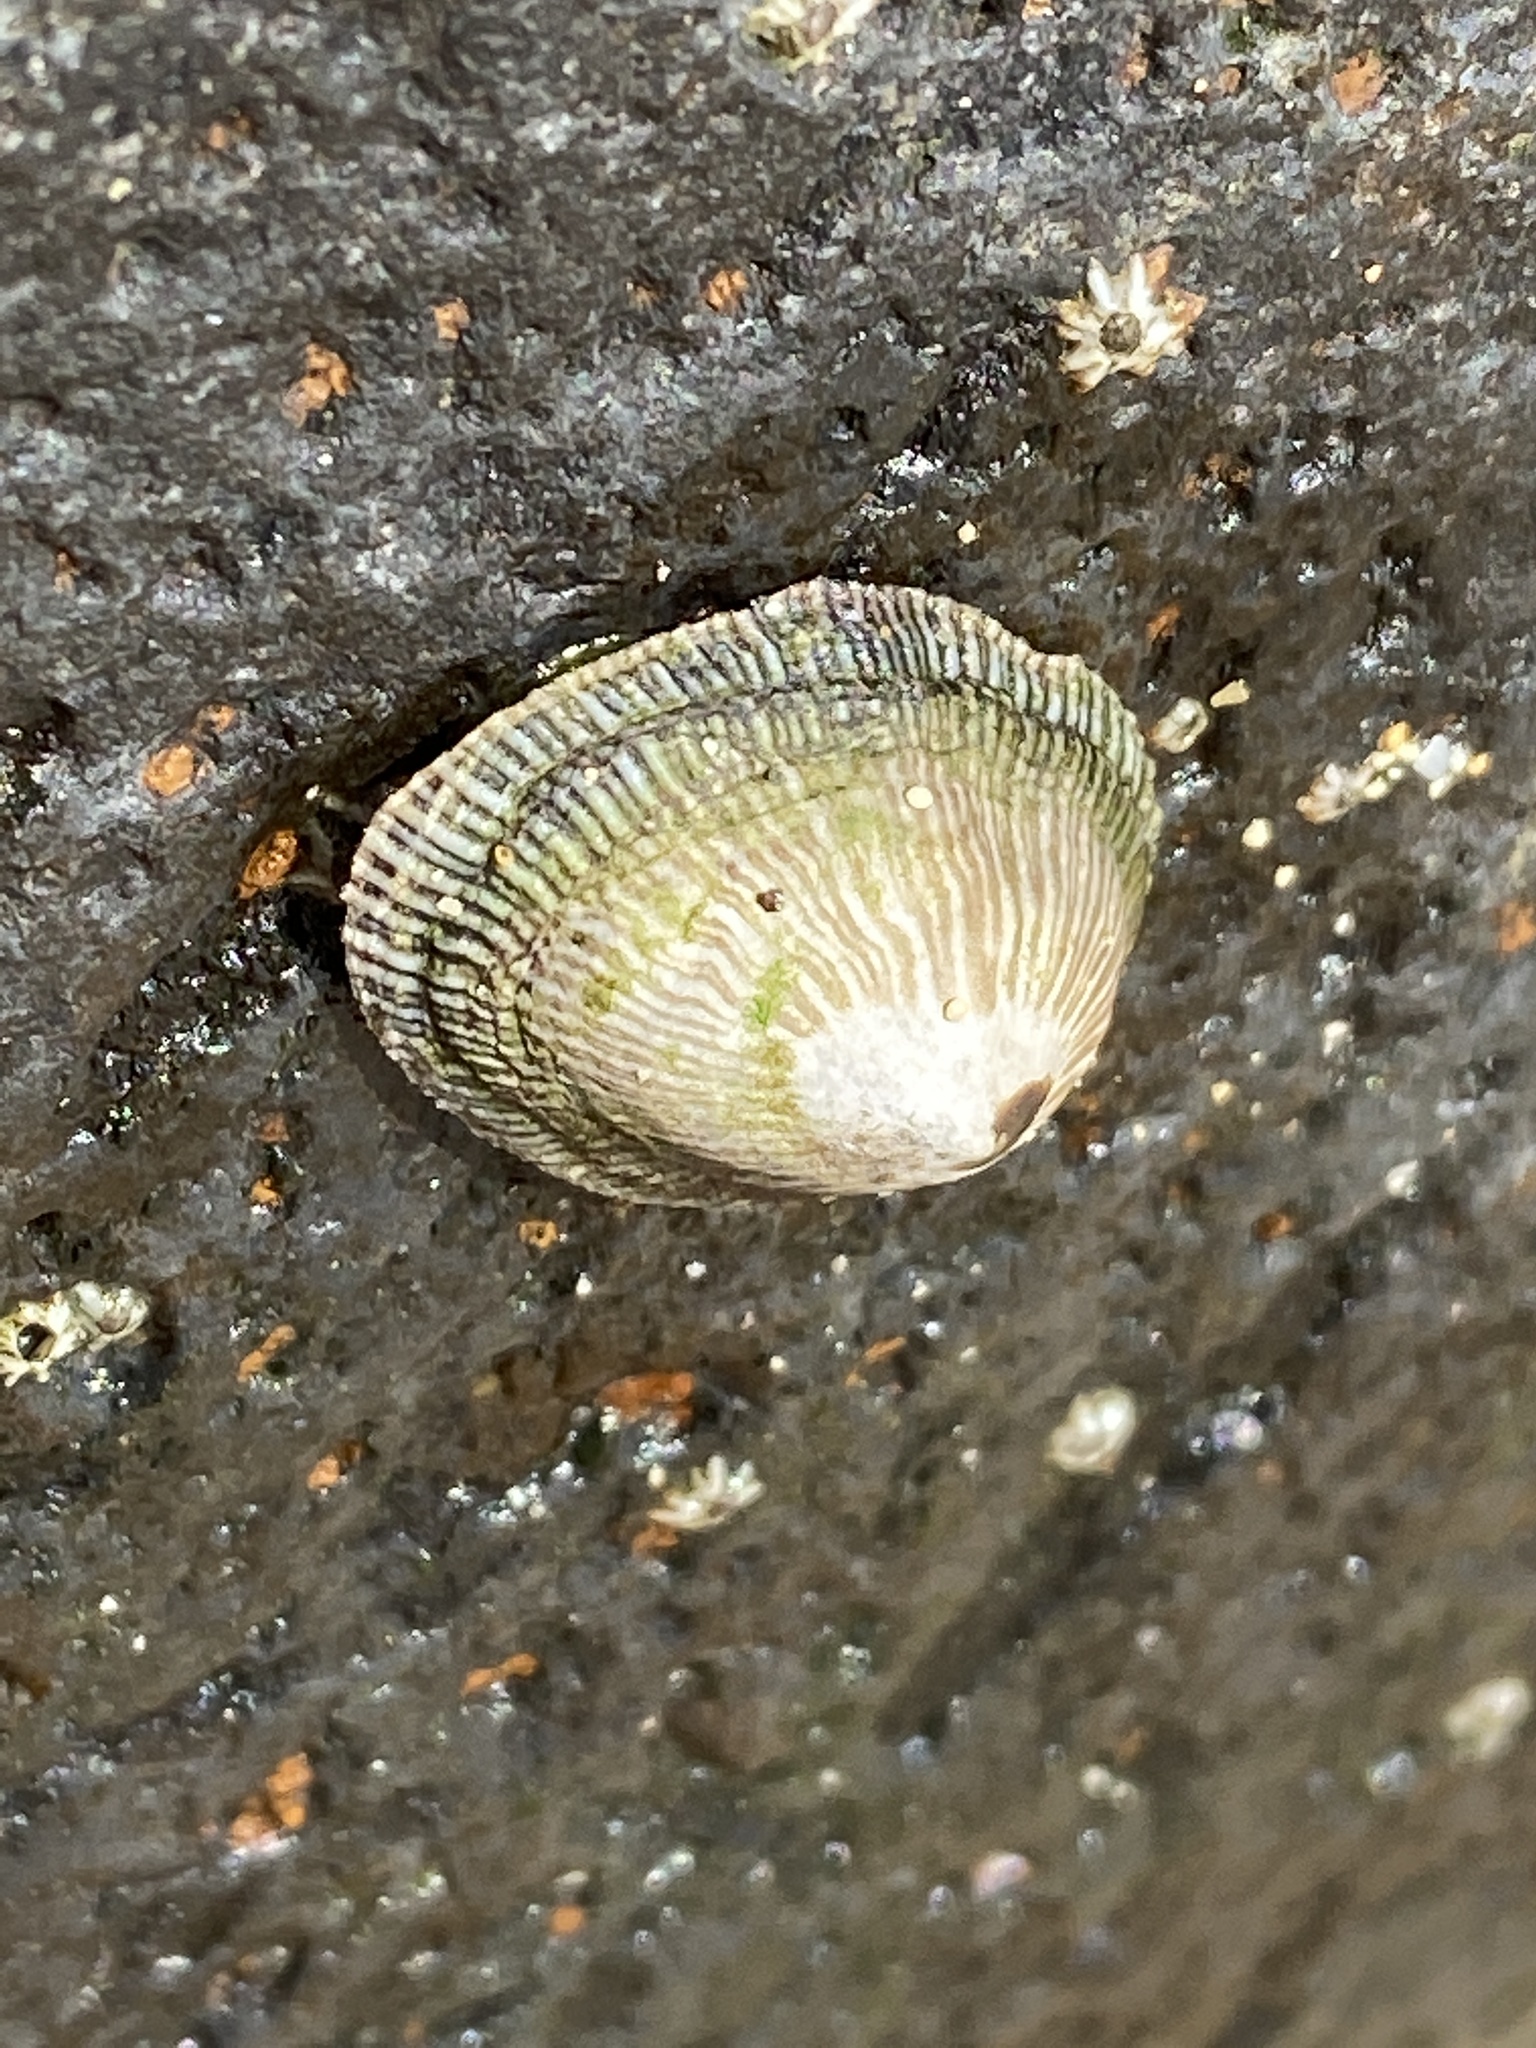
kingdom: Animalia
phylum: Mollusca
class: Gastropoda
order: Siphonariida
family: Siphonariidae
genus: Siphonaria
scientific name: Siphonaria pectinata
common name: Striped false limpet
